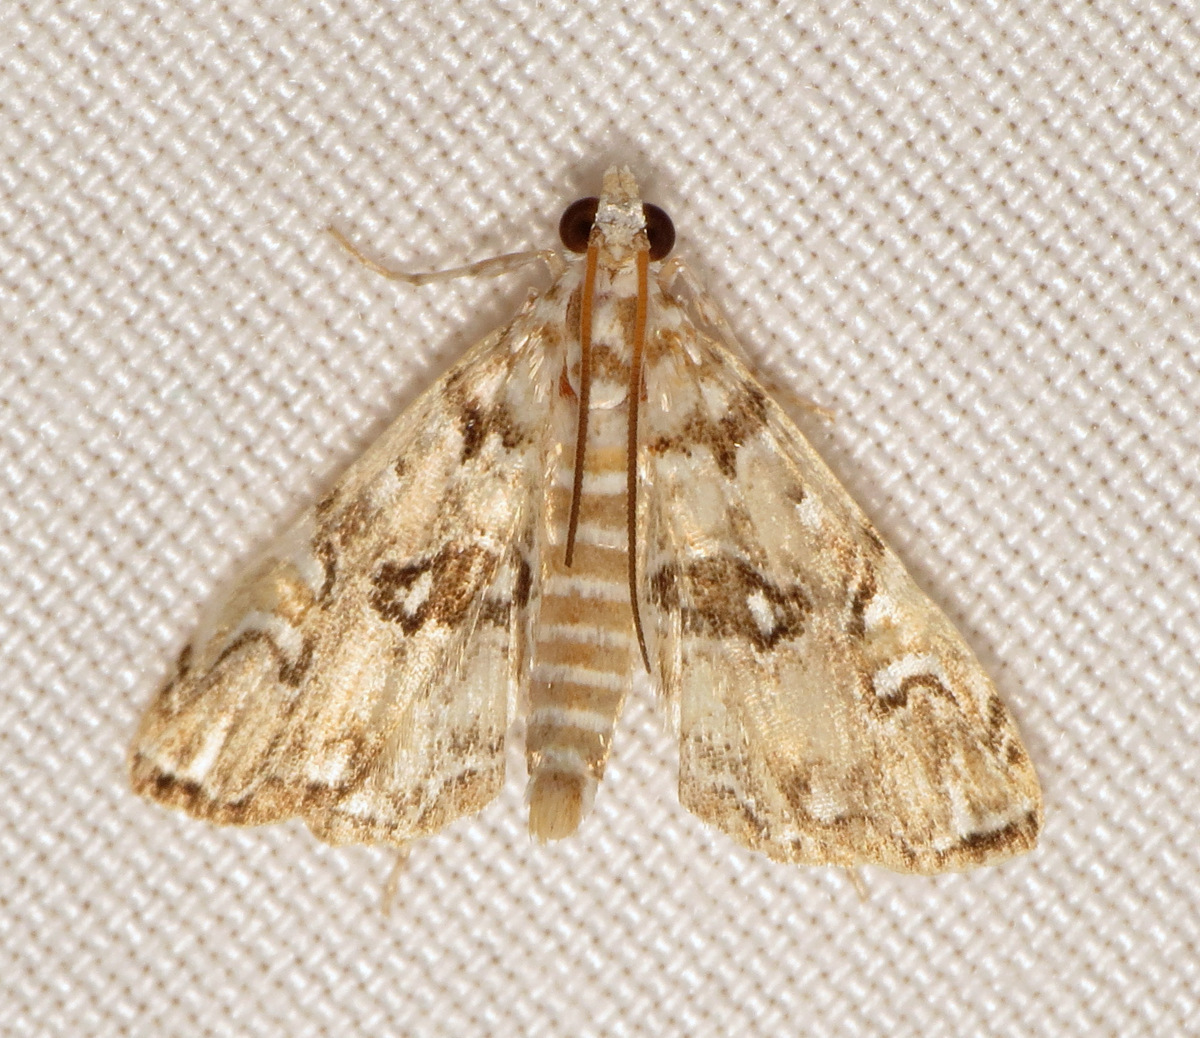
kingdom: Animalia
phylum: Arthropoda
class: Insecta
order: Lepidoptera
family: Crambidae
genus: Elophila
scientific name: Elophila gyralis
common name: Waterlily borer moth
